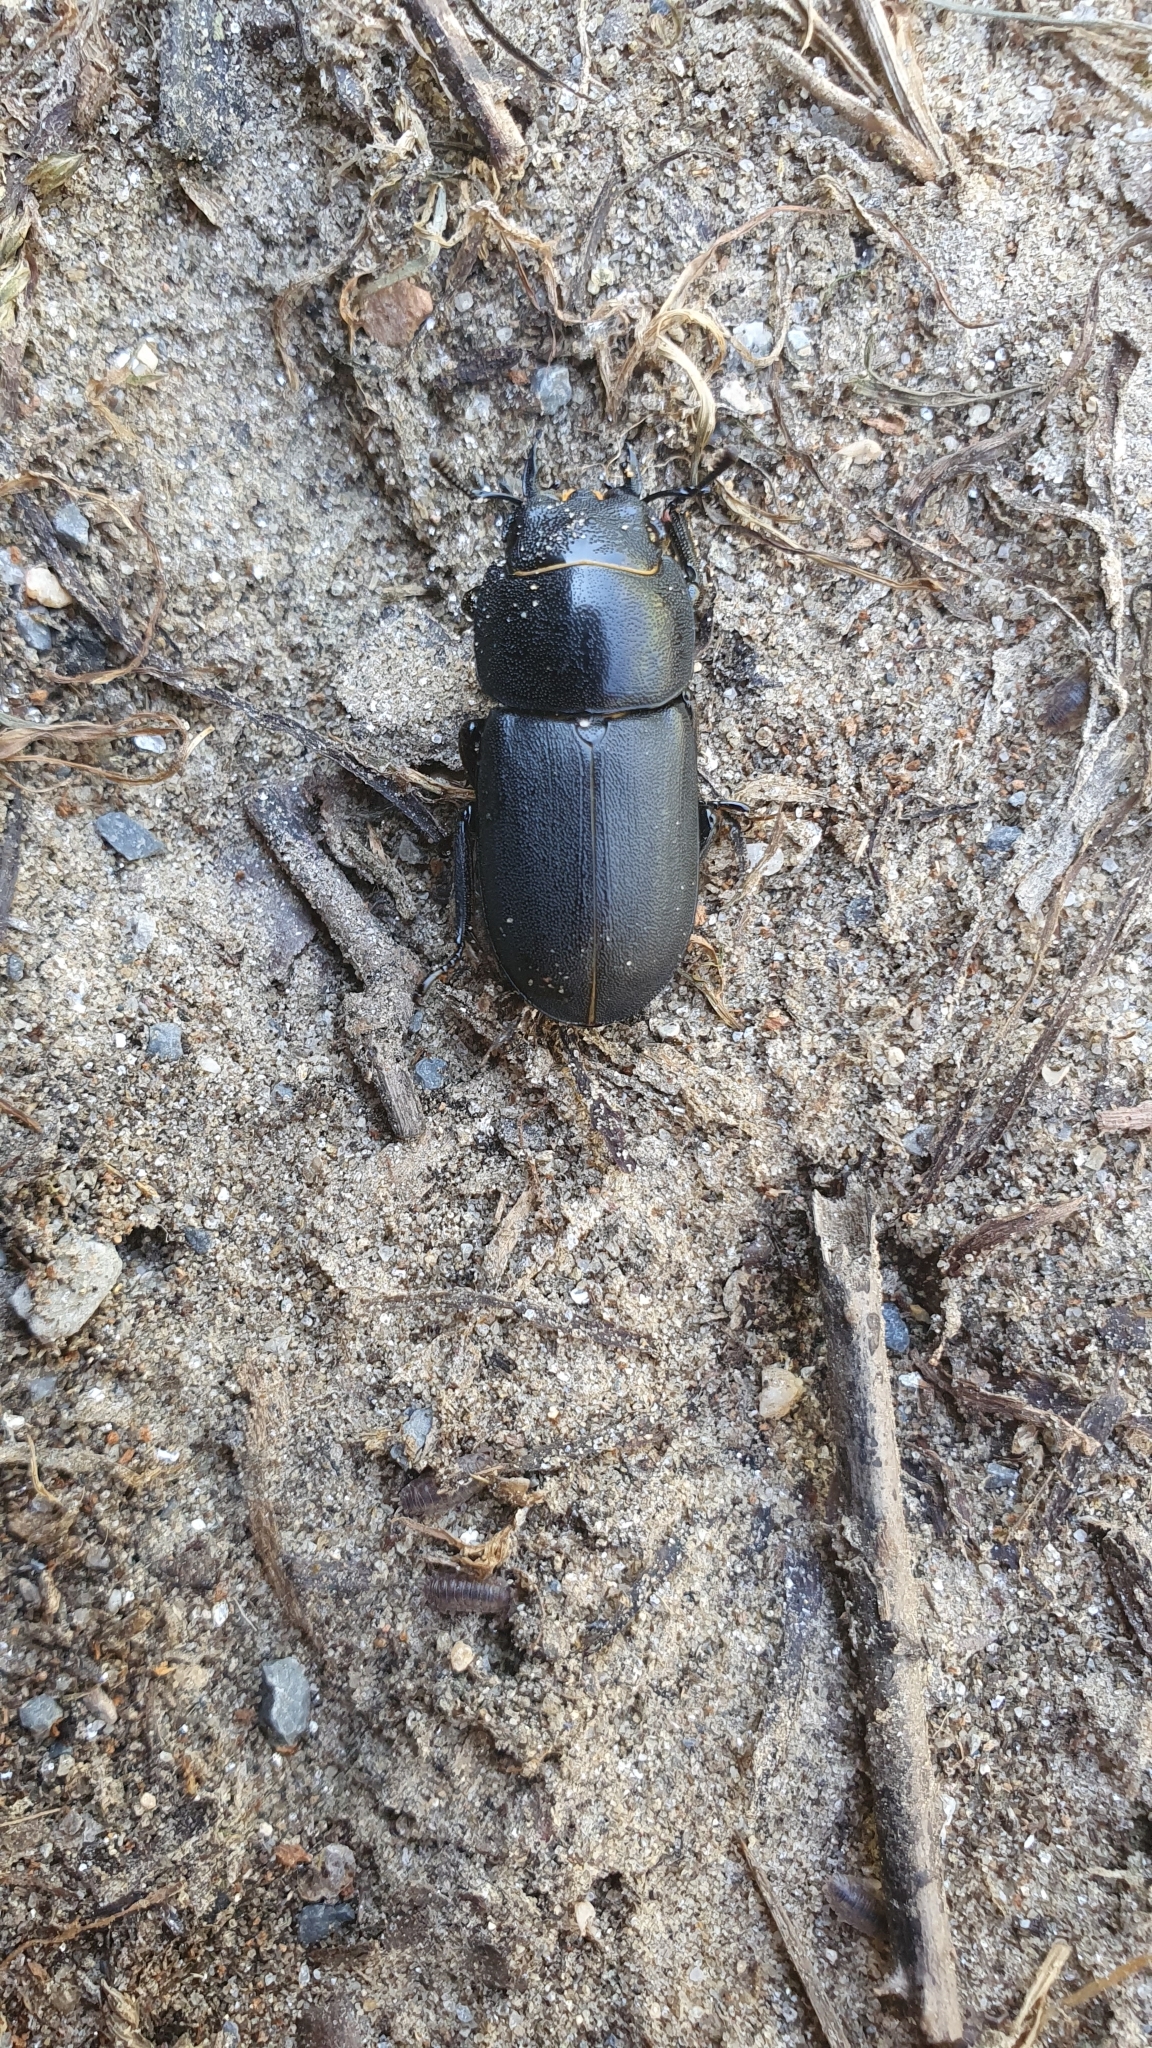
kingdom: Animalia
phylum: Arthropoda
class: Insecta
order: Coleoptera
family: Lucanidae
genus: Dorcus
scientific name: Dorcus parallelipipedus
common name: Lesser stag beetle
